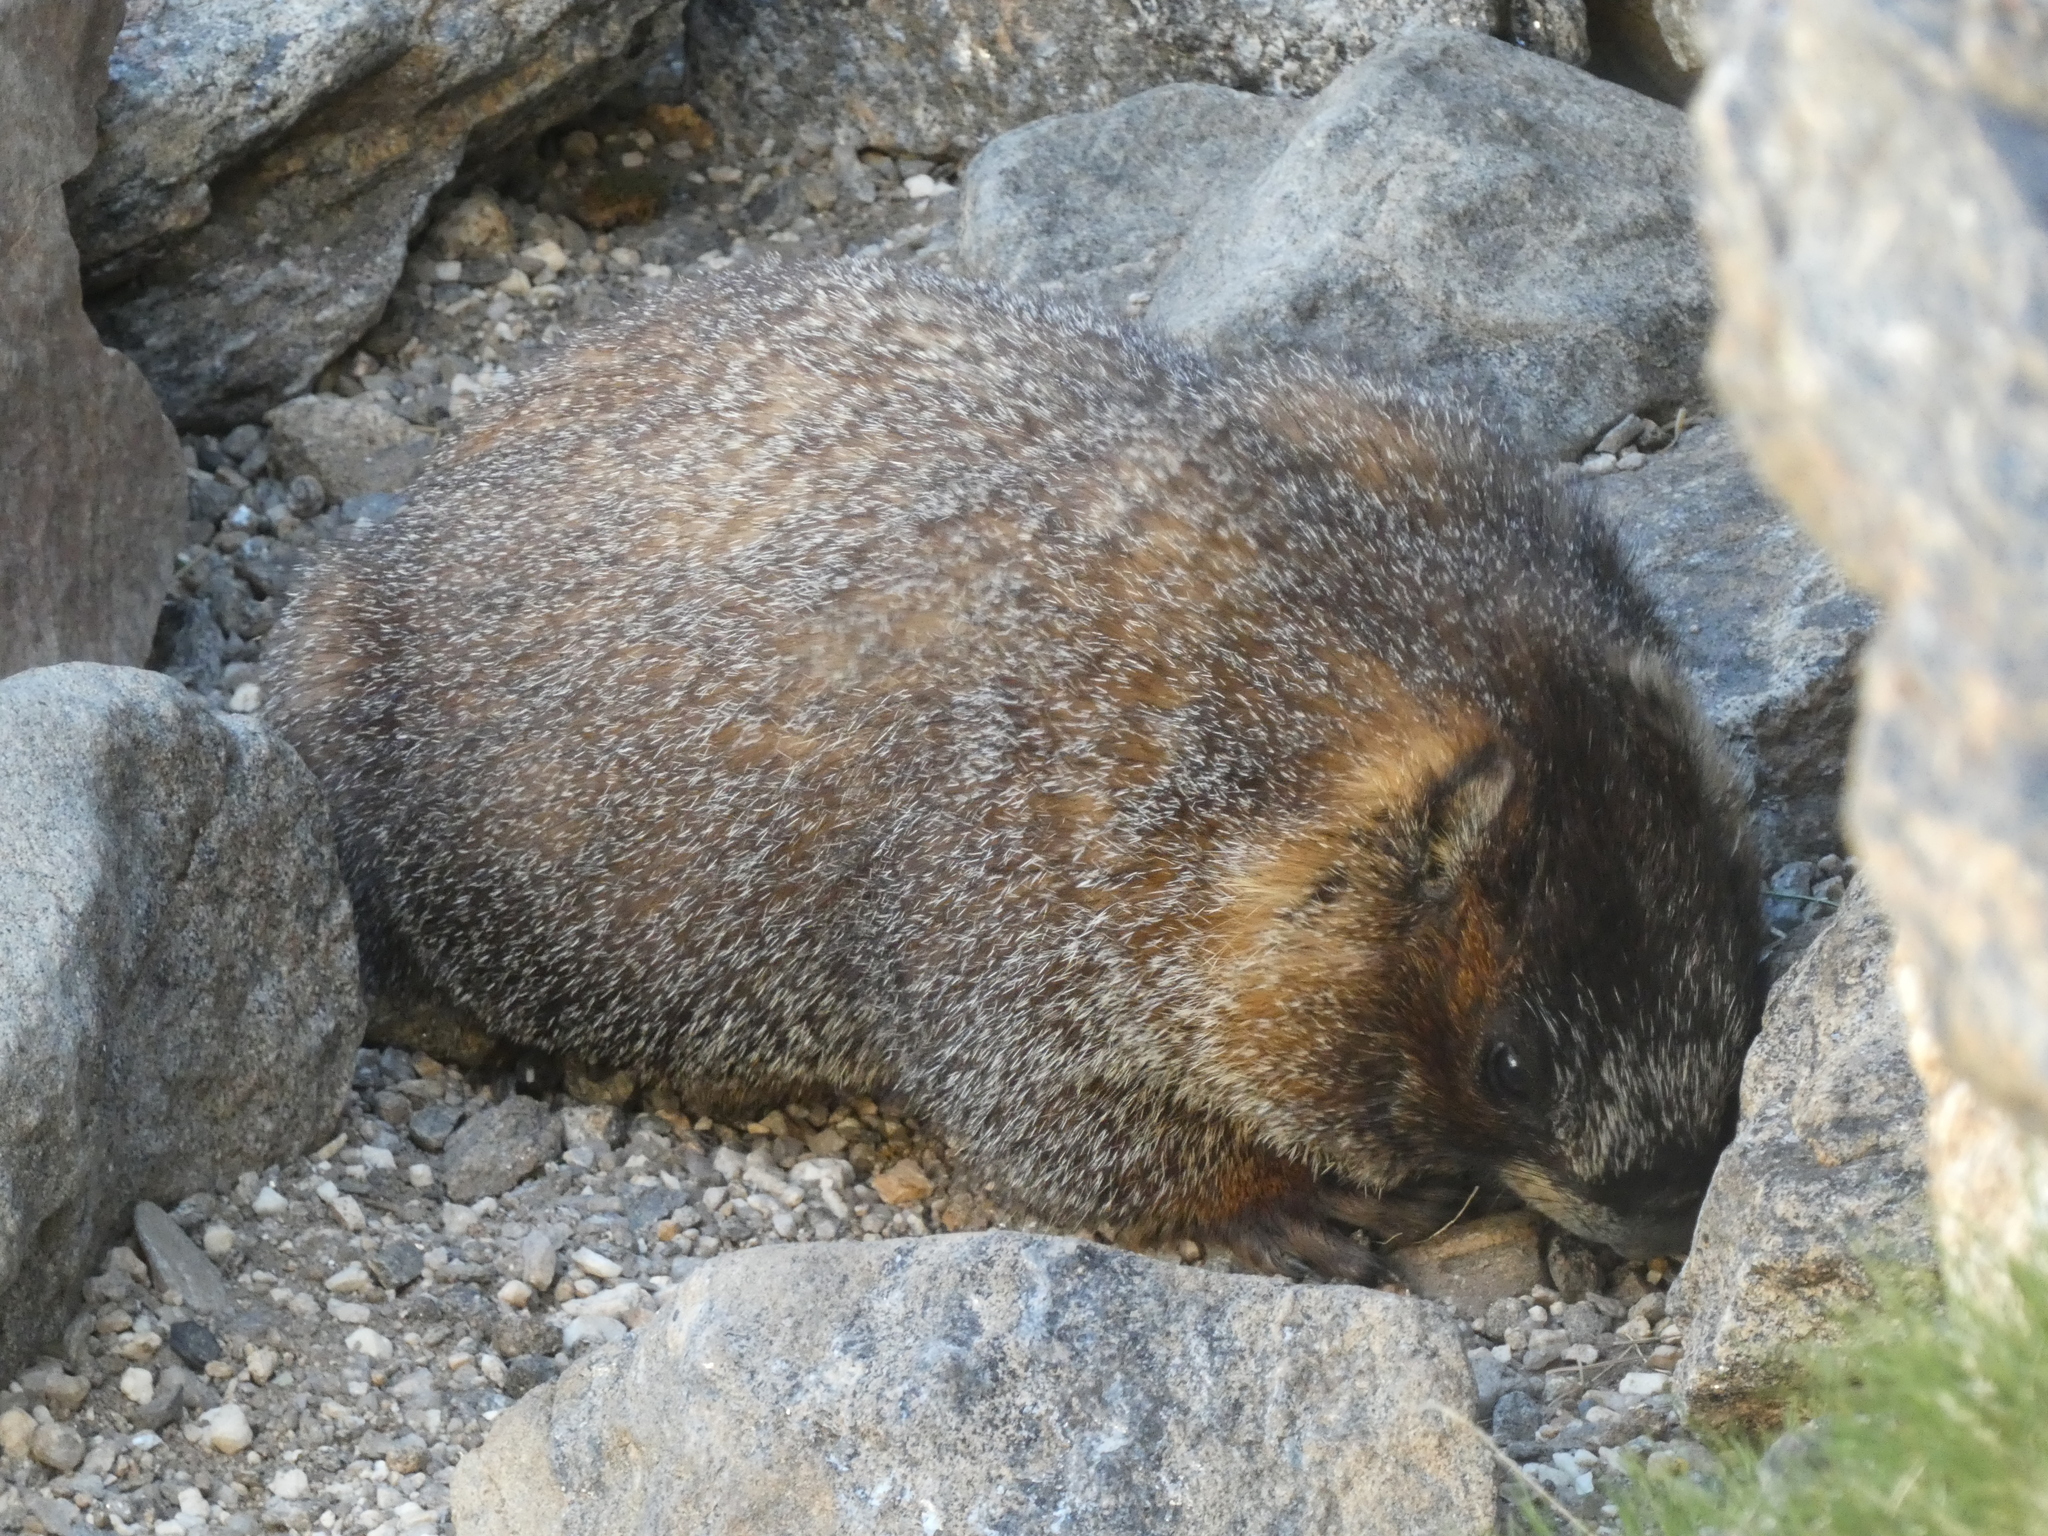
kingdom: Animalia
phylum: Chordata
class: Mammalia
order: Rodentia
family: Sciuridae
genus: Marmota
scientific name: Marmota flaviventris
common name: Yellow-bellied marmot
